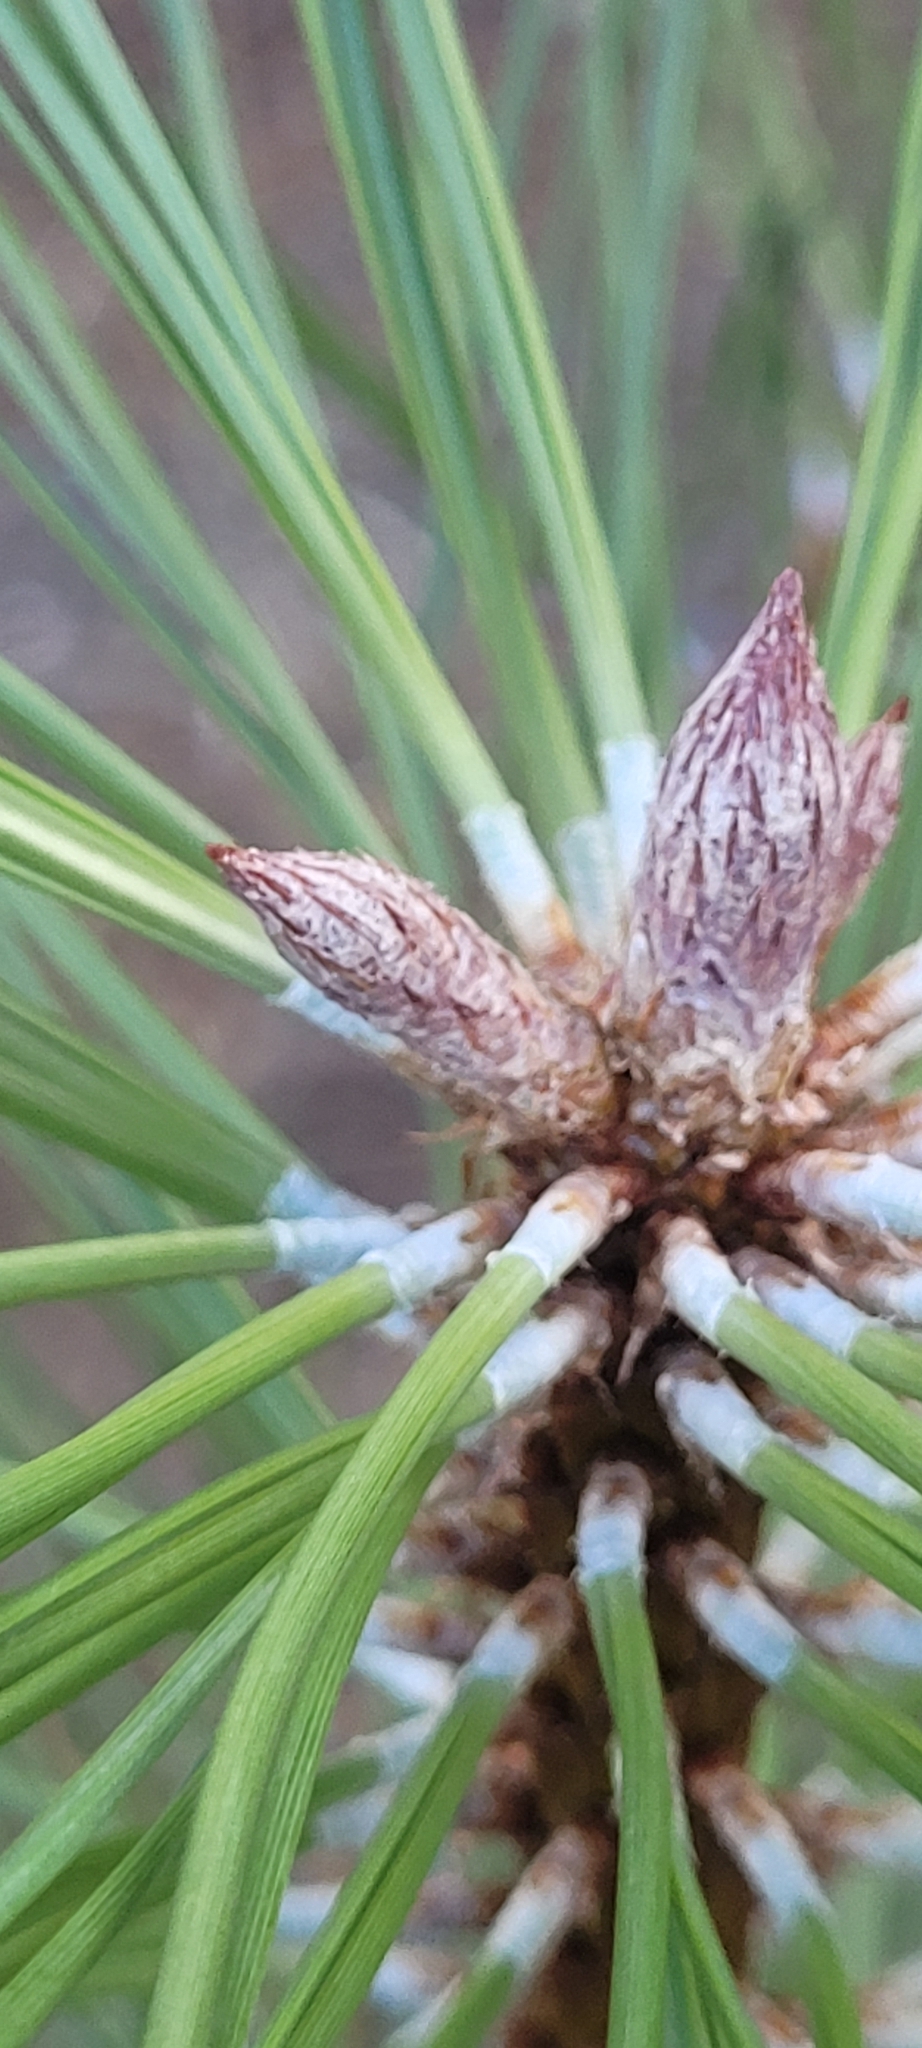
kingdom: Plantae
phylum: Tracheophyta
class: Pinopsida
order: Pinales
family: Pinaceae
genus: Pinus
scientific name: Pinus ponderosa
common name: Western yellow-pine
